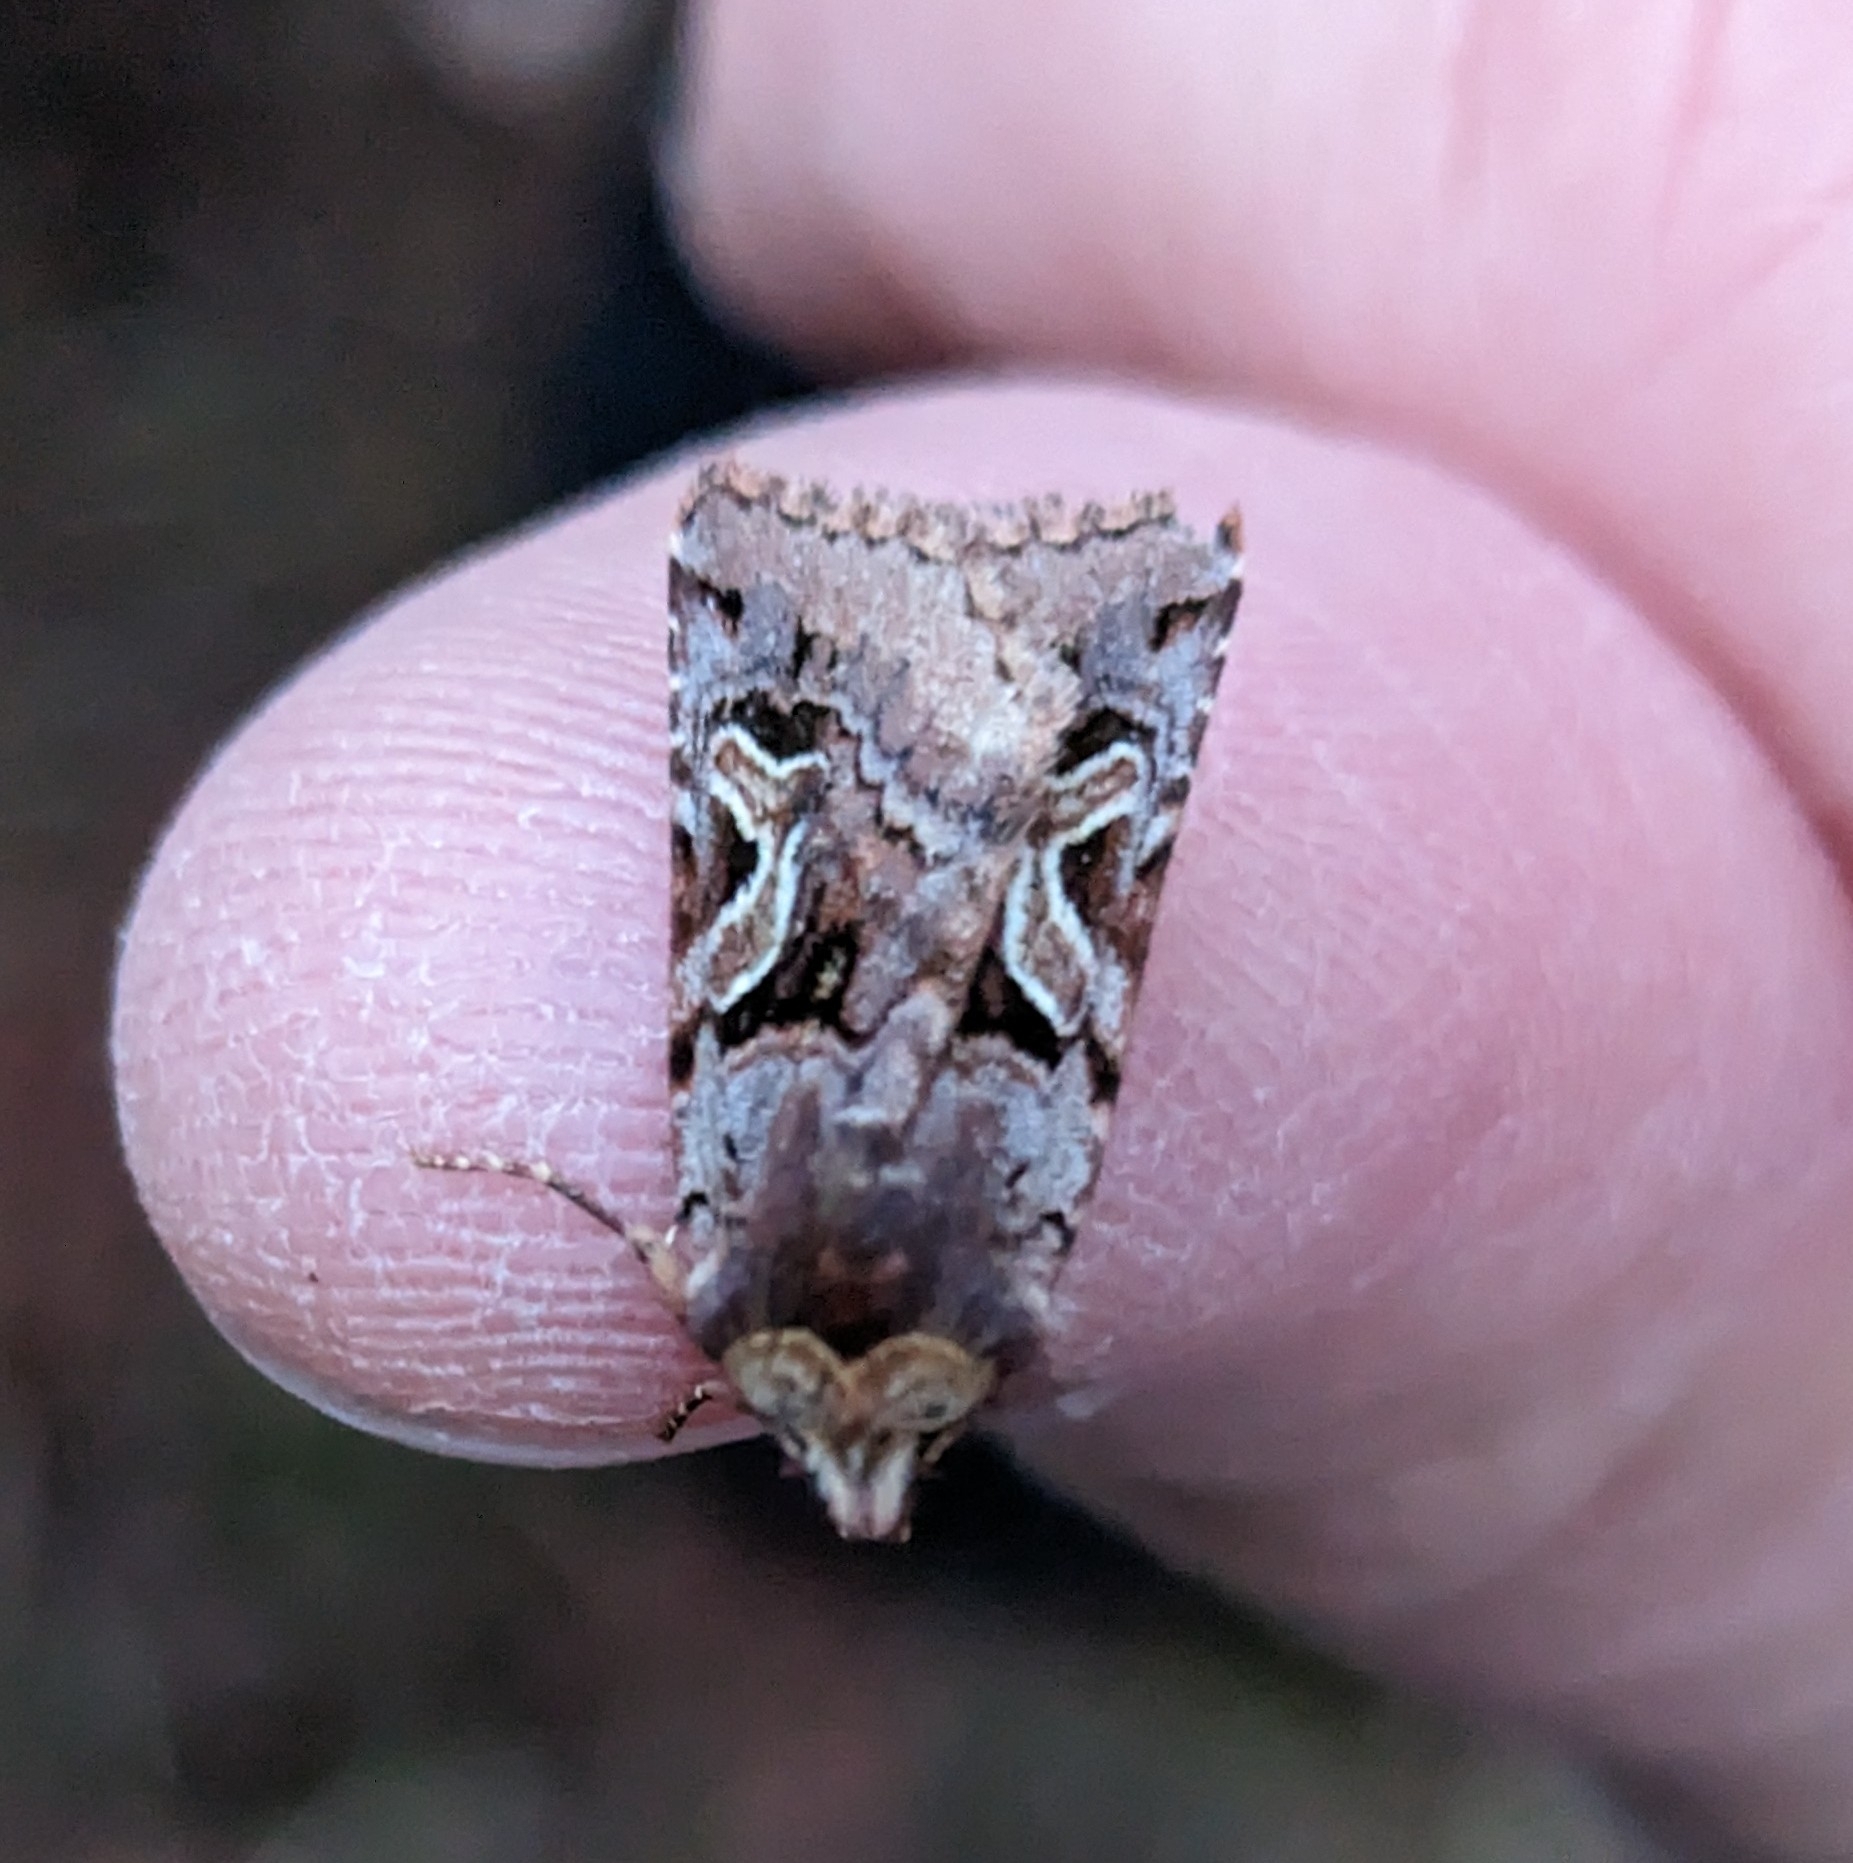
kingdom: Animalia
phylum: Arthropoda
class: Insecta
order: Lepidoptera
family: Noctuidae
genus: Cerastis
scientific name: Cerastis enigmatica
